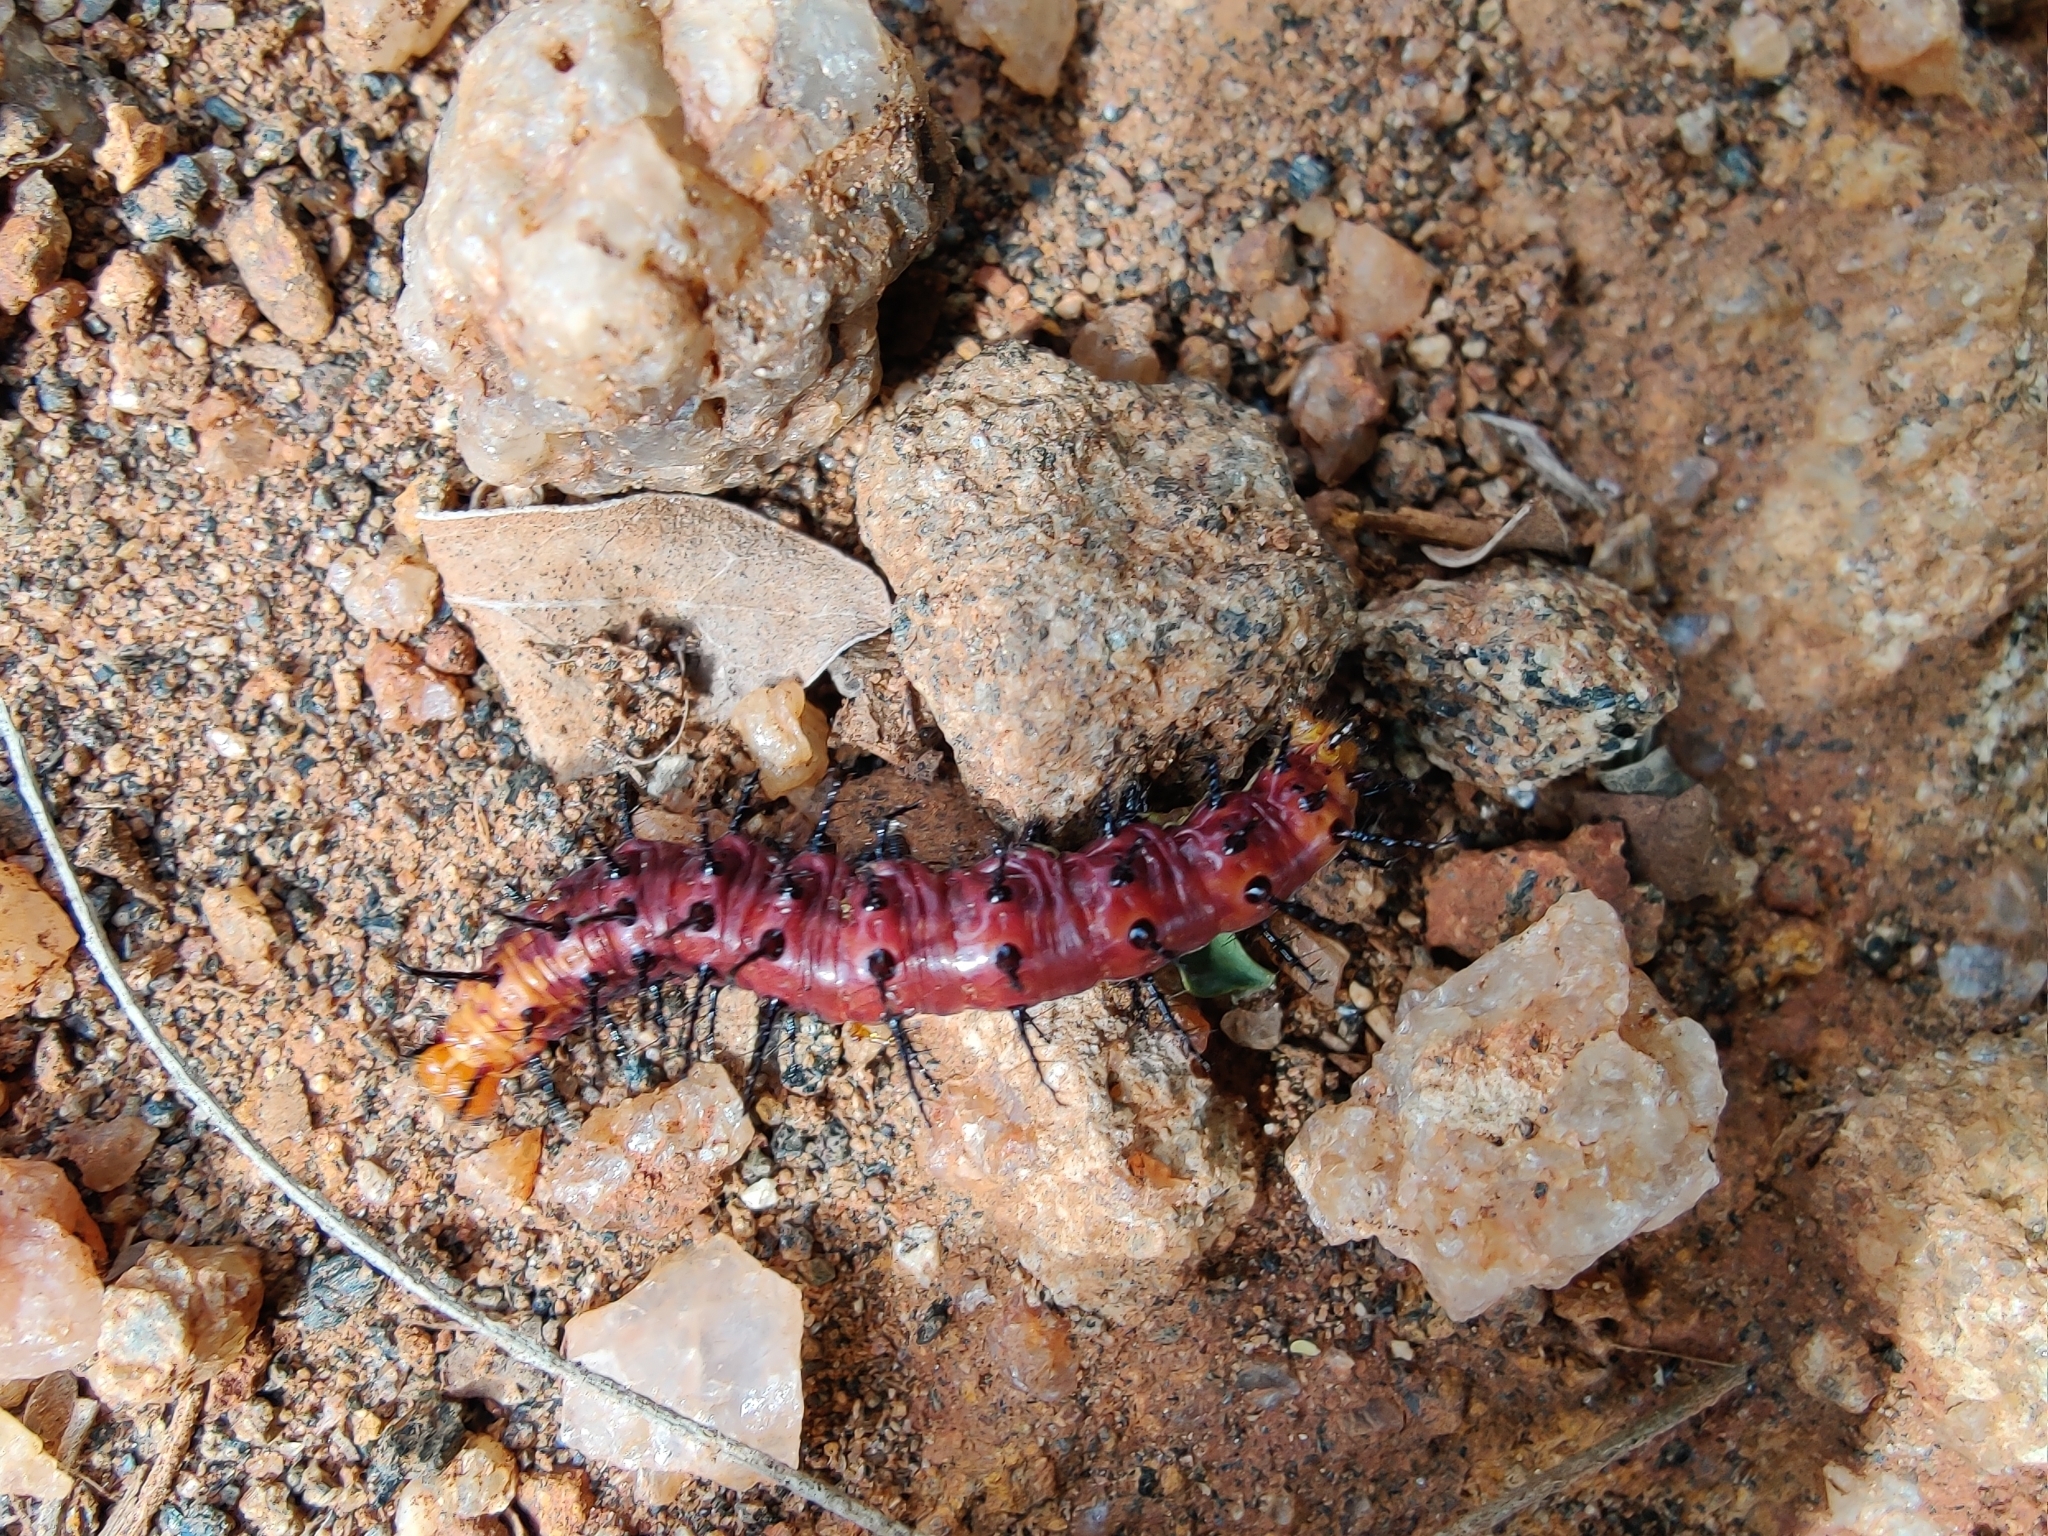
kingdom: Animalia
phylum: Arthropoda
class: Insecta
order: Lepidoptera
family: Nymphalidae
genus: Acraea
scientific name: Acraea terpsicore
